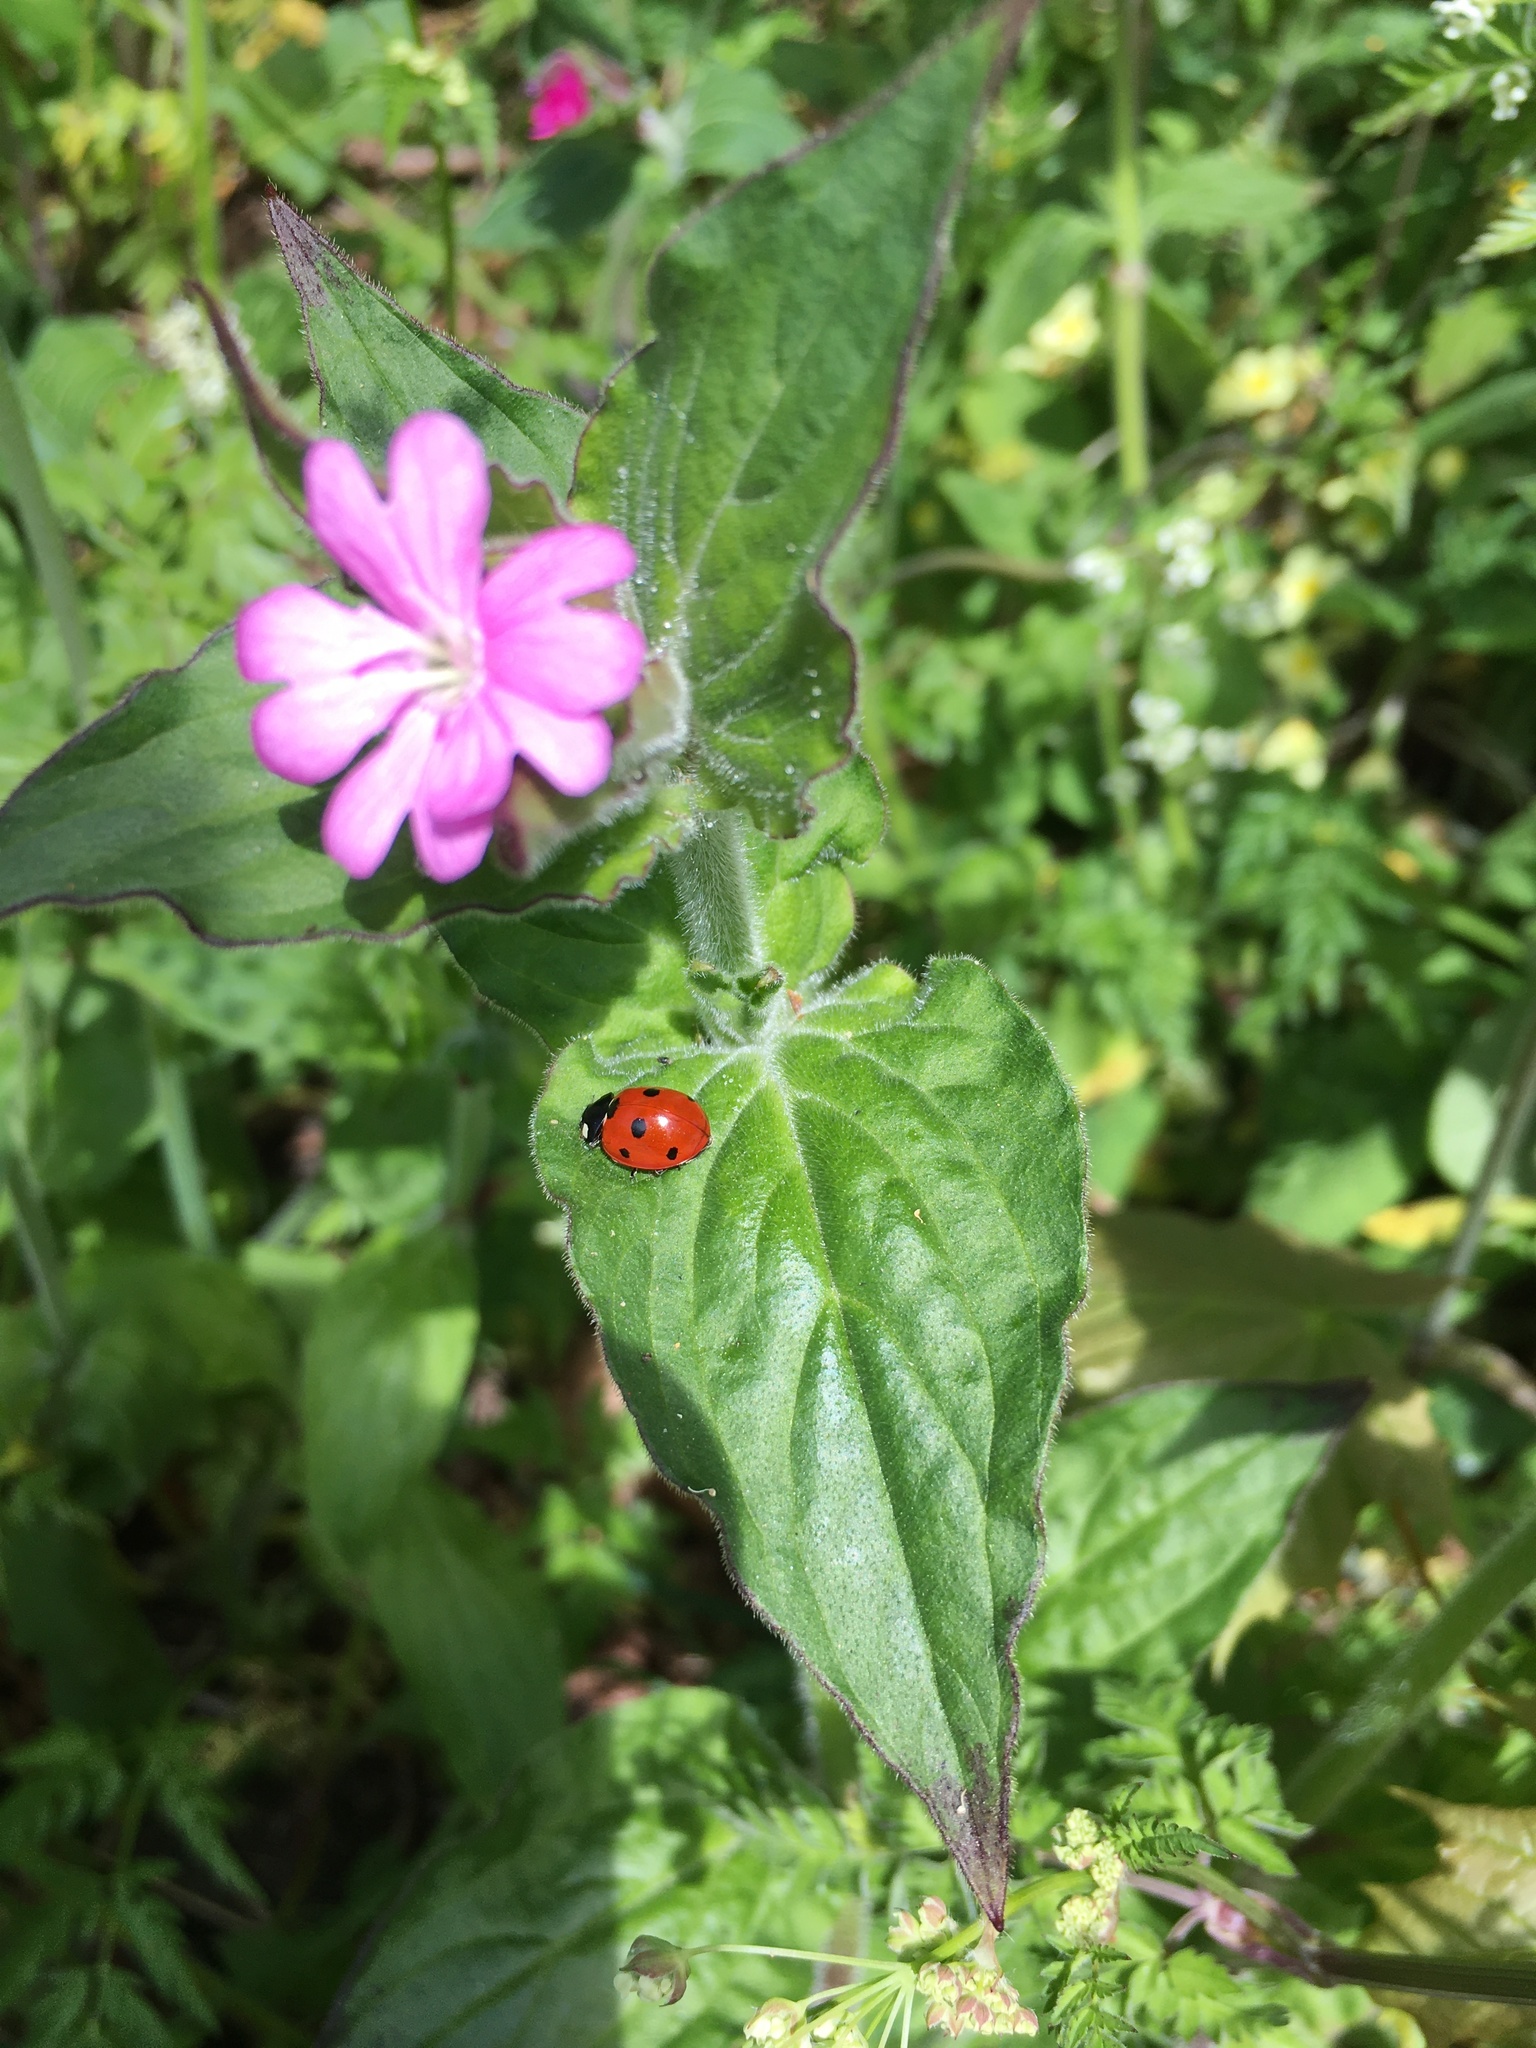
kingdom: Plantae
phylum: Tracheophyta
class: Magnoliopsida
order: Caryophyllales
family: Caryophyllaceae
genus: Silene
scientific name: Silene dioica
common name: Red campion
